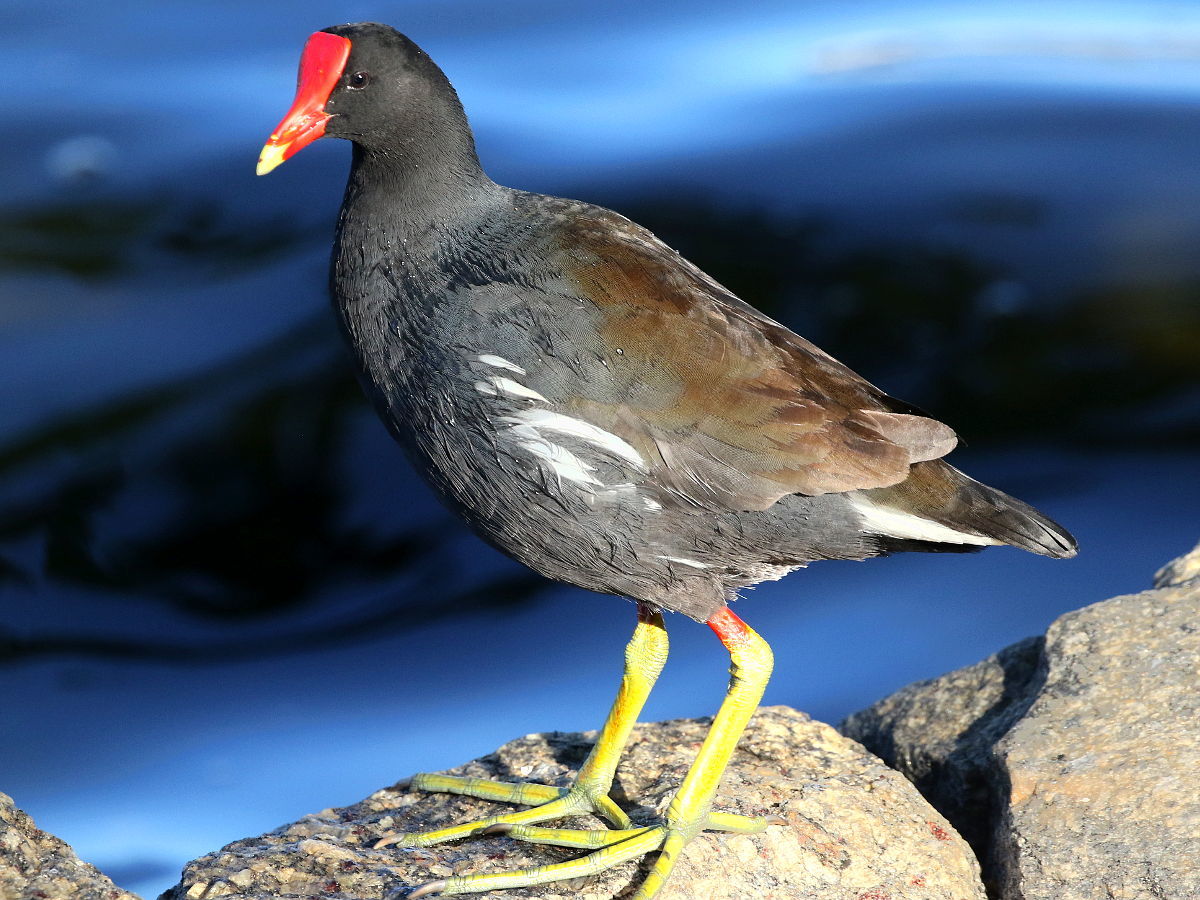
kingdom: Animalia
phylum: Chordata
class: Aves
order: Gruiformes
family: Rallidae
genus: Gallinula
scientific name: Gallinula chloropus
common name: Common moorhen
